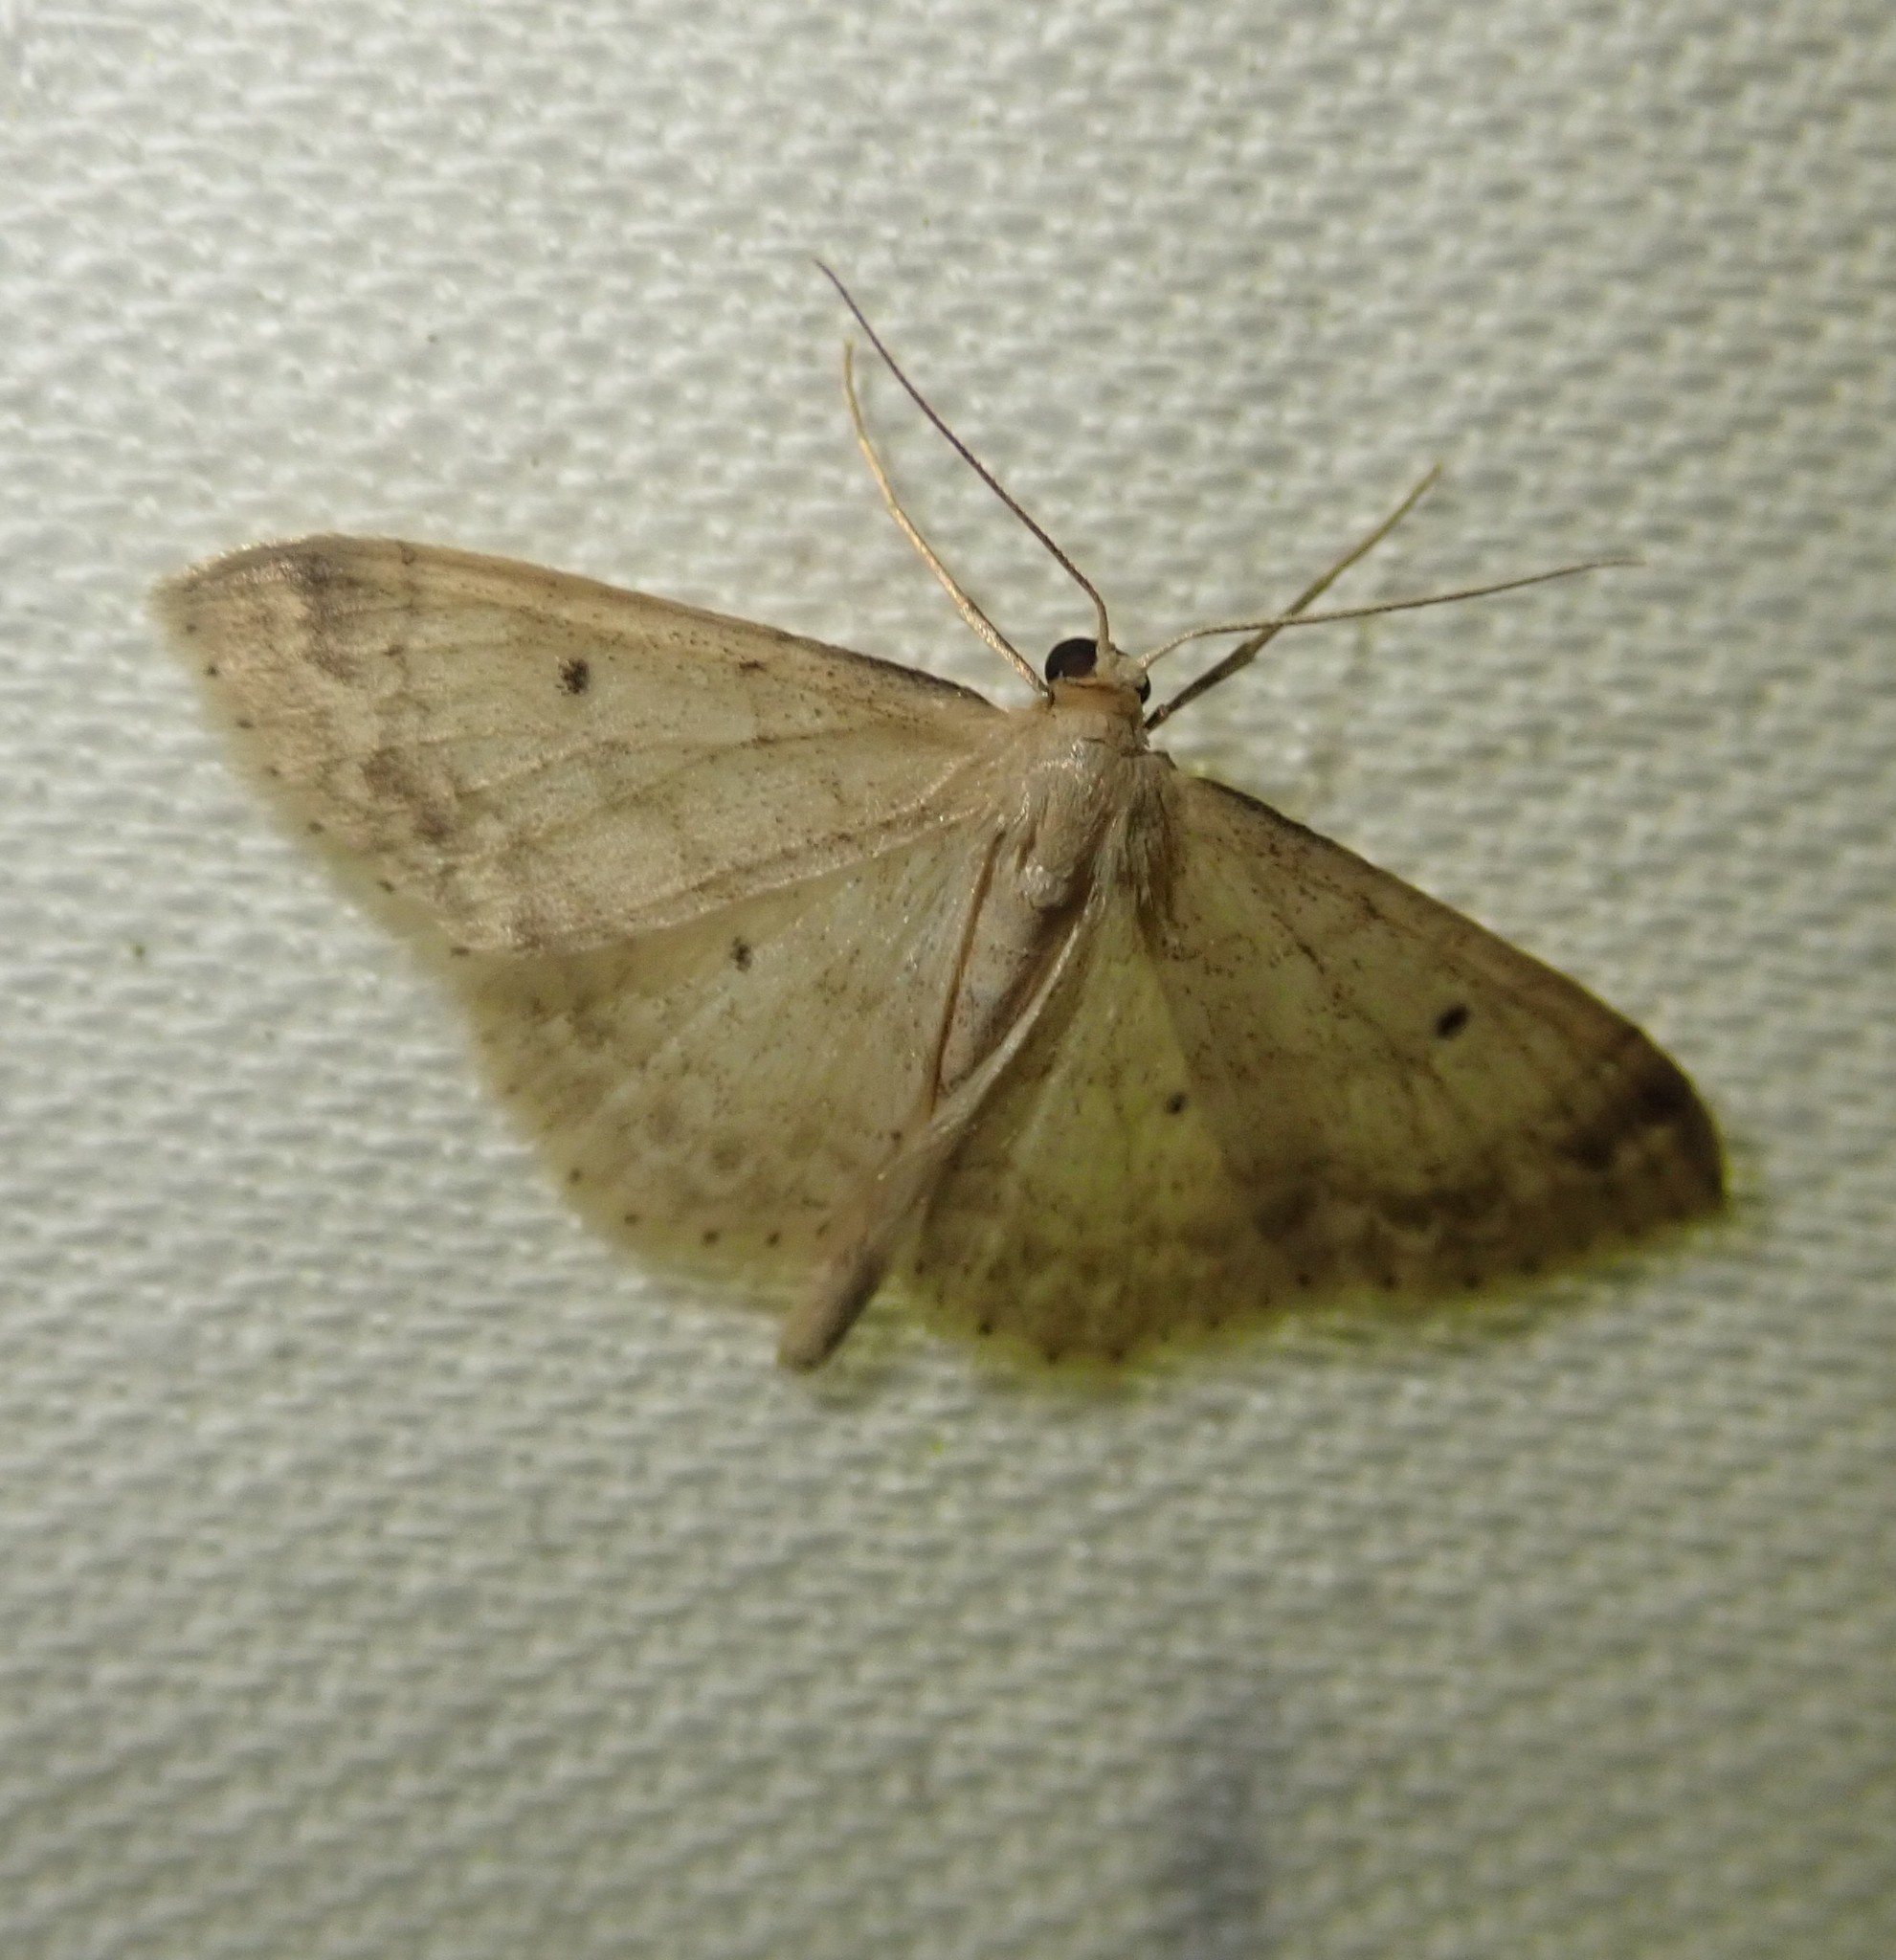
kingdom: Animalia
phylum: Arthropoda
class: Insecta
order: Lepidoptera
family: Geometridae
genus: Idaea
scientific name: Idaea biselata
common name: Small fan-footed wave
